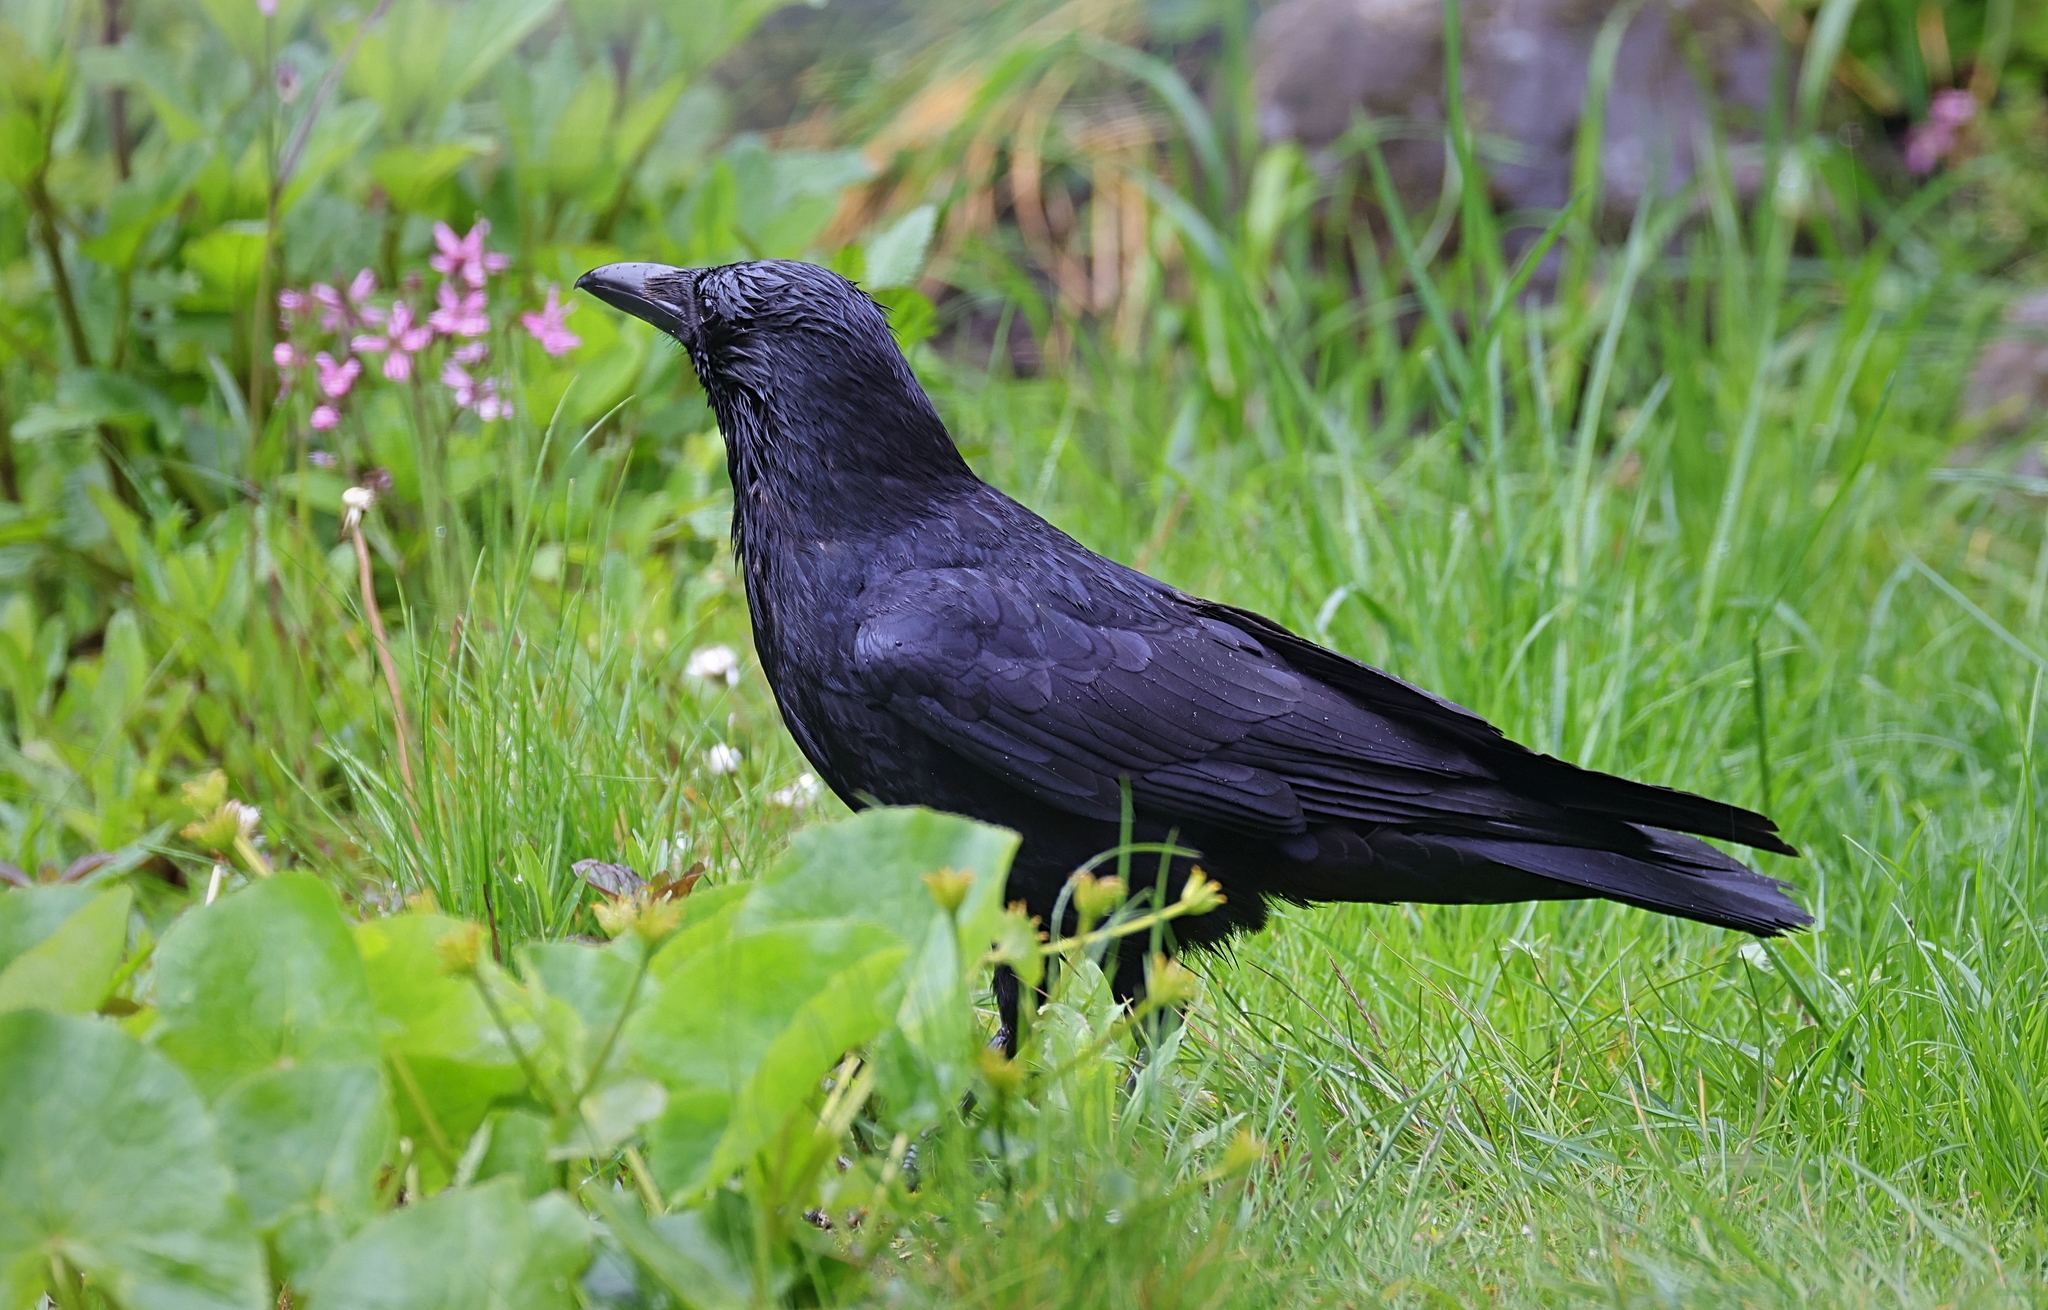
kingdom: Animalia
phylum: Chordata
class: Aves
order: Passeriformes
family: Corvidae
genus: Corvus
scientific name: Corvus corone
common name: Carrion crow
